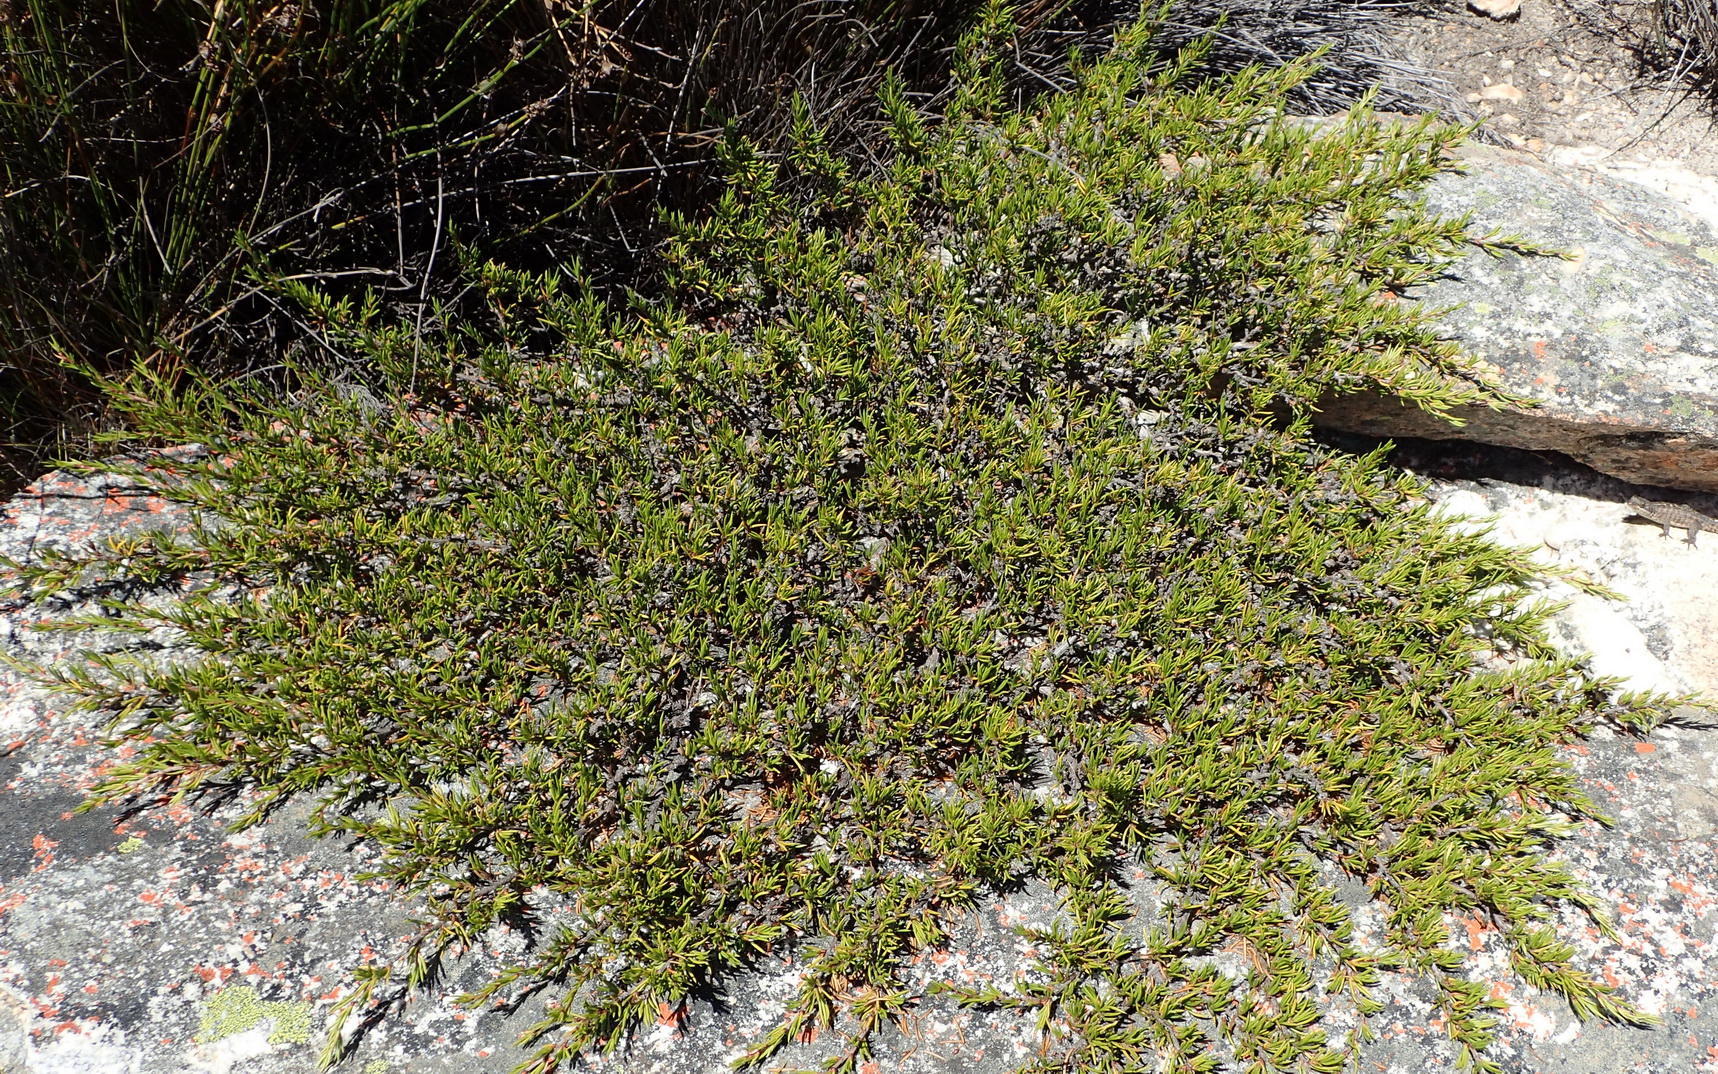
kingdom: Plantae
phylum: Tracheophyta
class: Magnoliopsida
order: Rosales
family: Rosaceae
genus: Cliffortia
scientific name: Cliffortia neglecta
